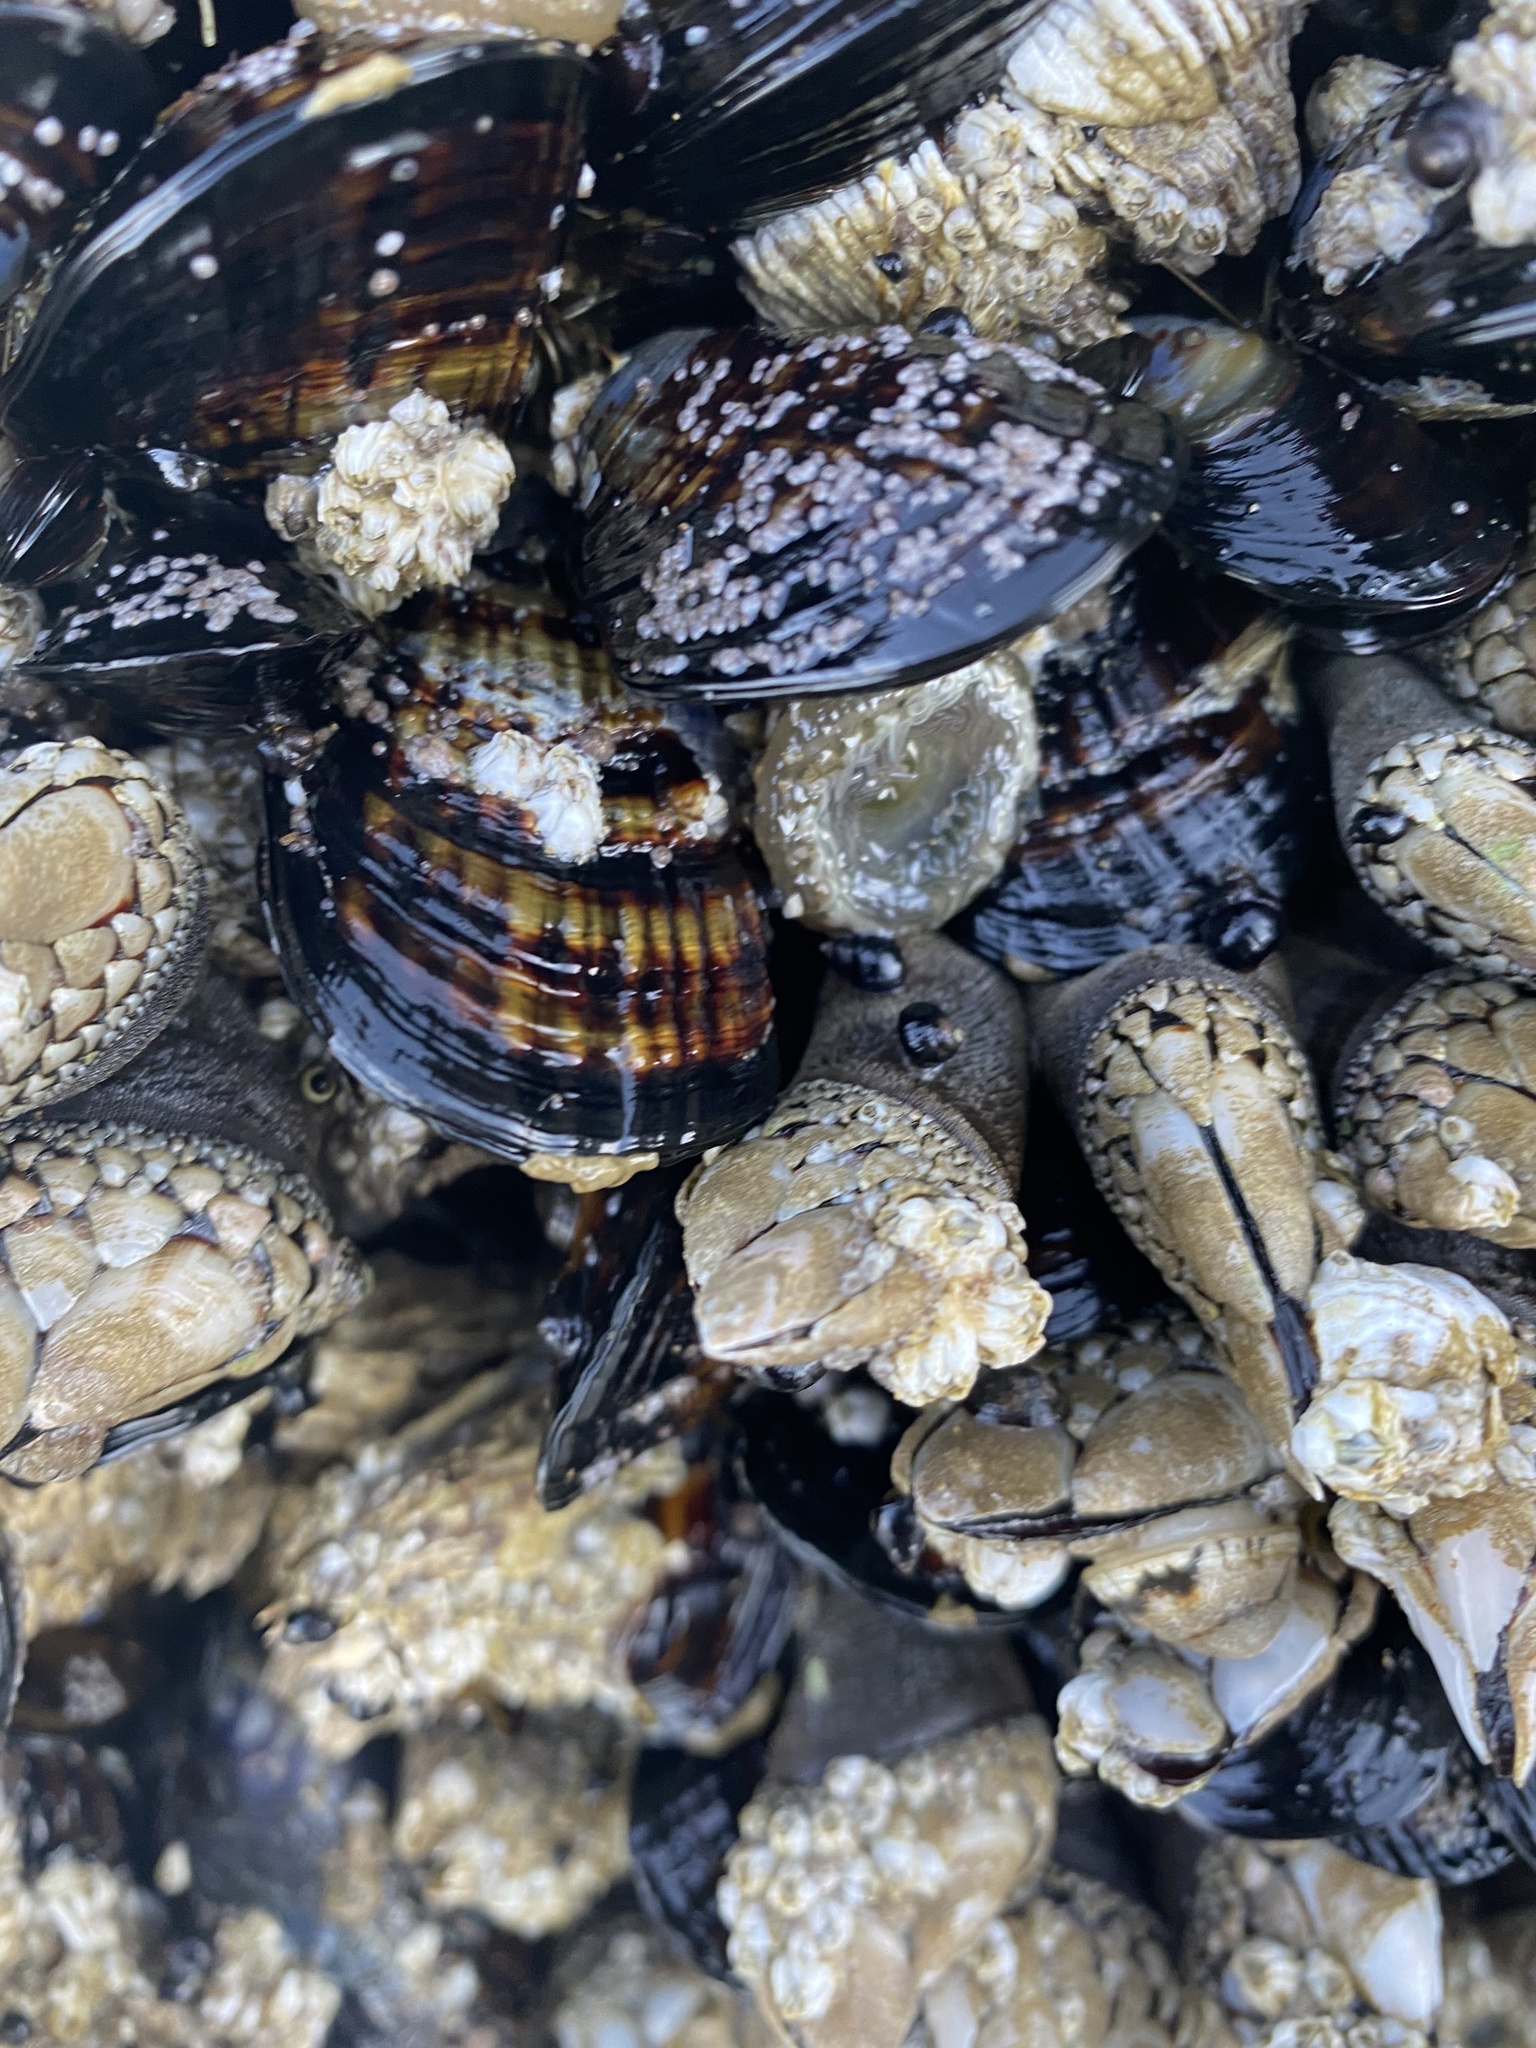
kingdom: Animalia
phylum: Arthropoda
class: Maxillopoda
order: Pedunculata
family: Pollicipedidae
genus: Pollicipes
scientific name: Pollicipes polymerus
